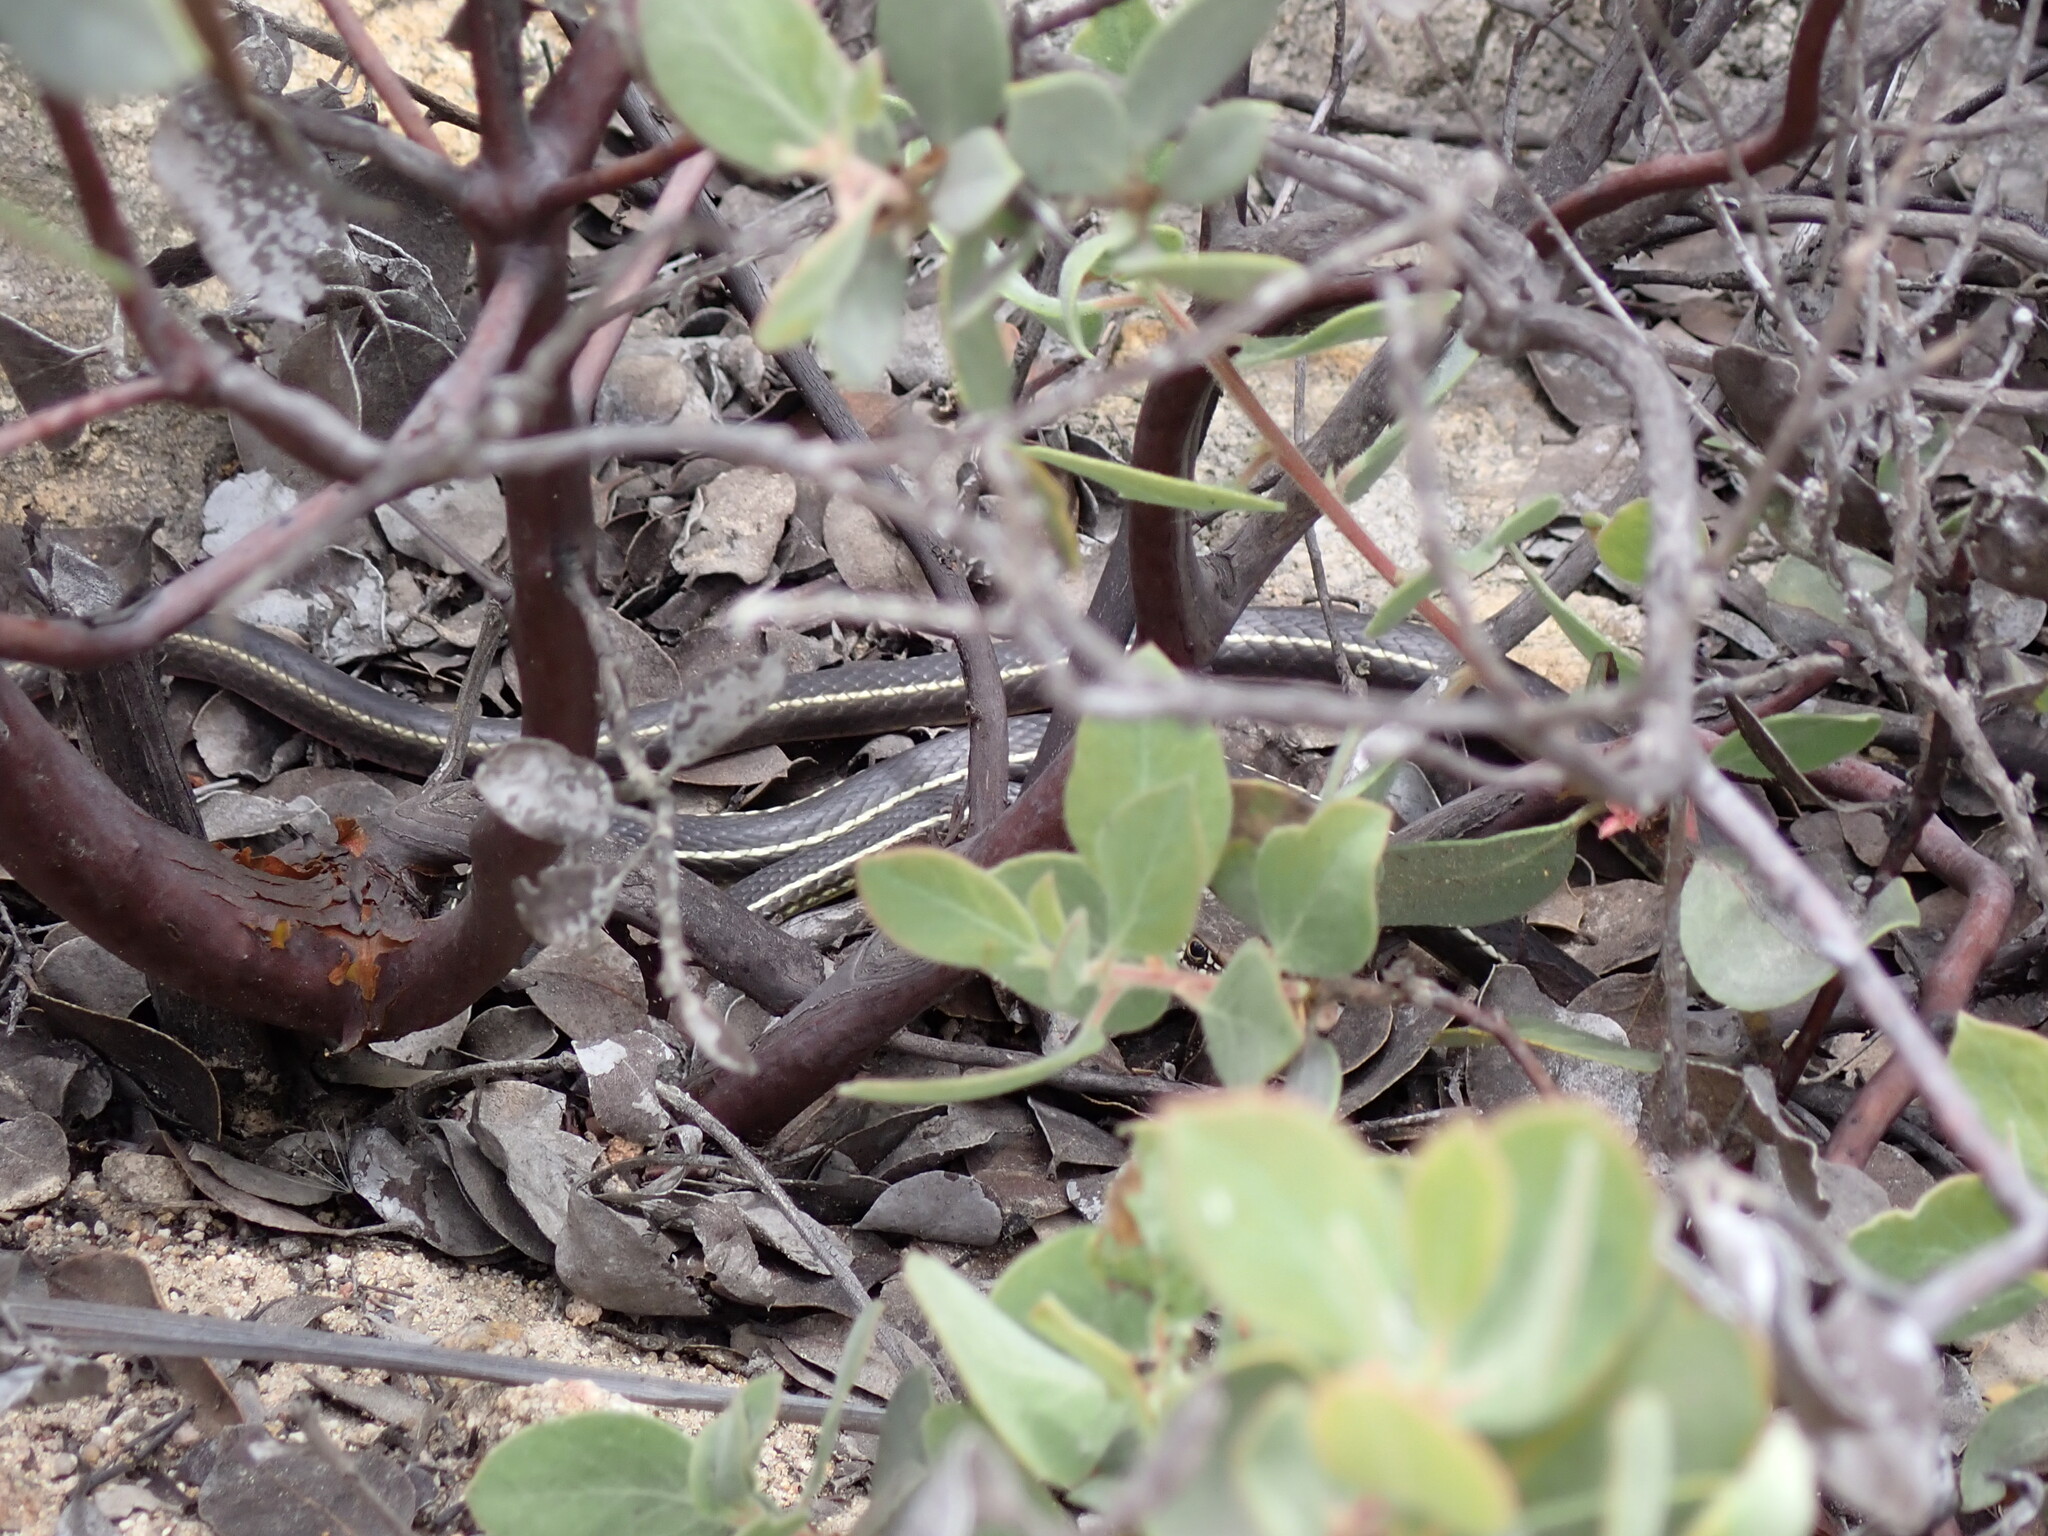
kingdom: Animalia
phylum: Chordata
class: Squamata
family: Colubridae
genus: Masticophis
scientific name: Masticophis lateralis
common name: Striped racer
